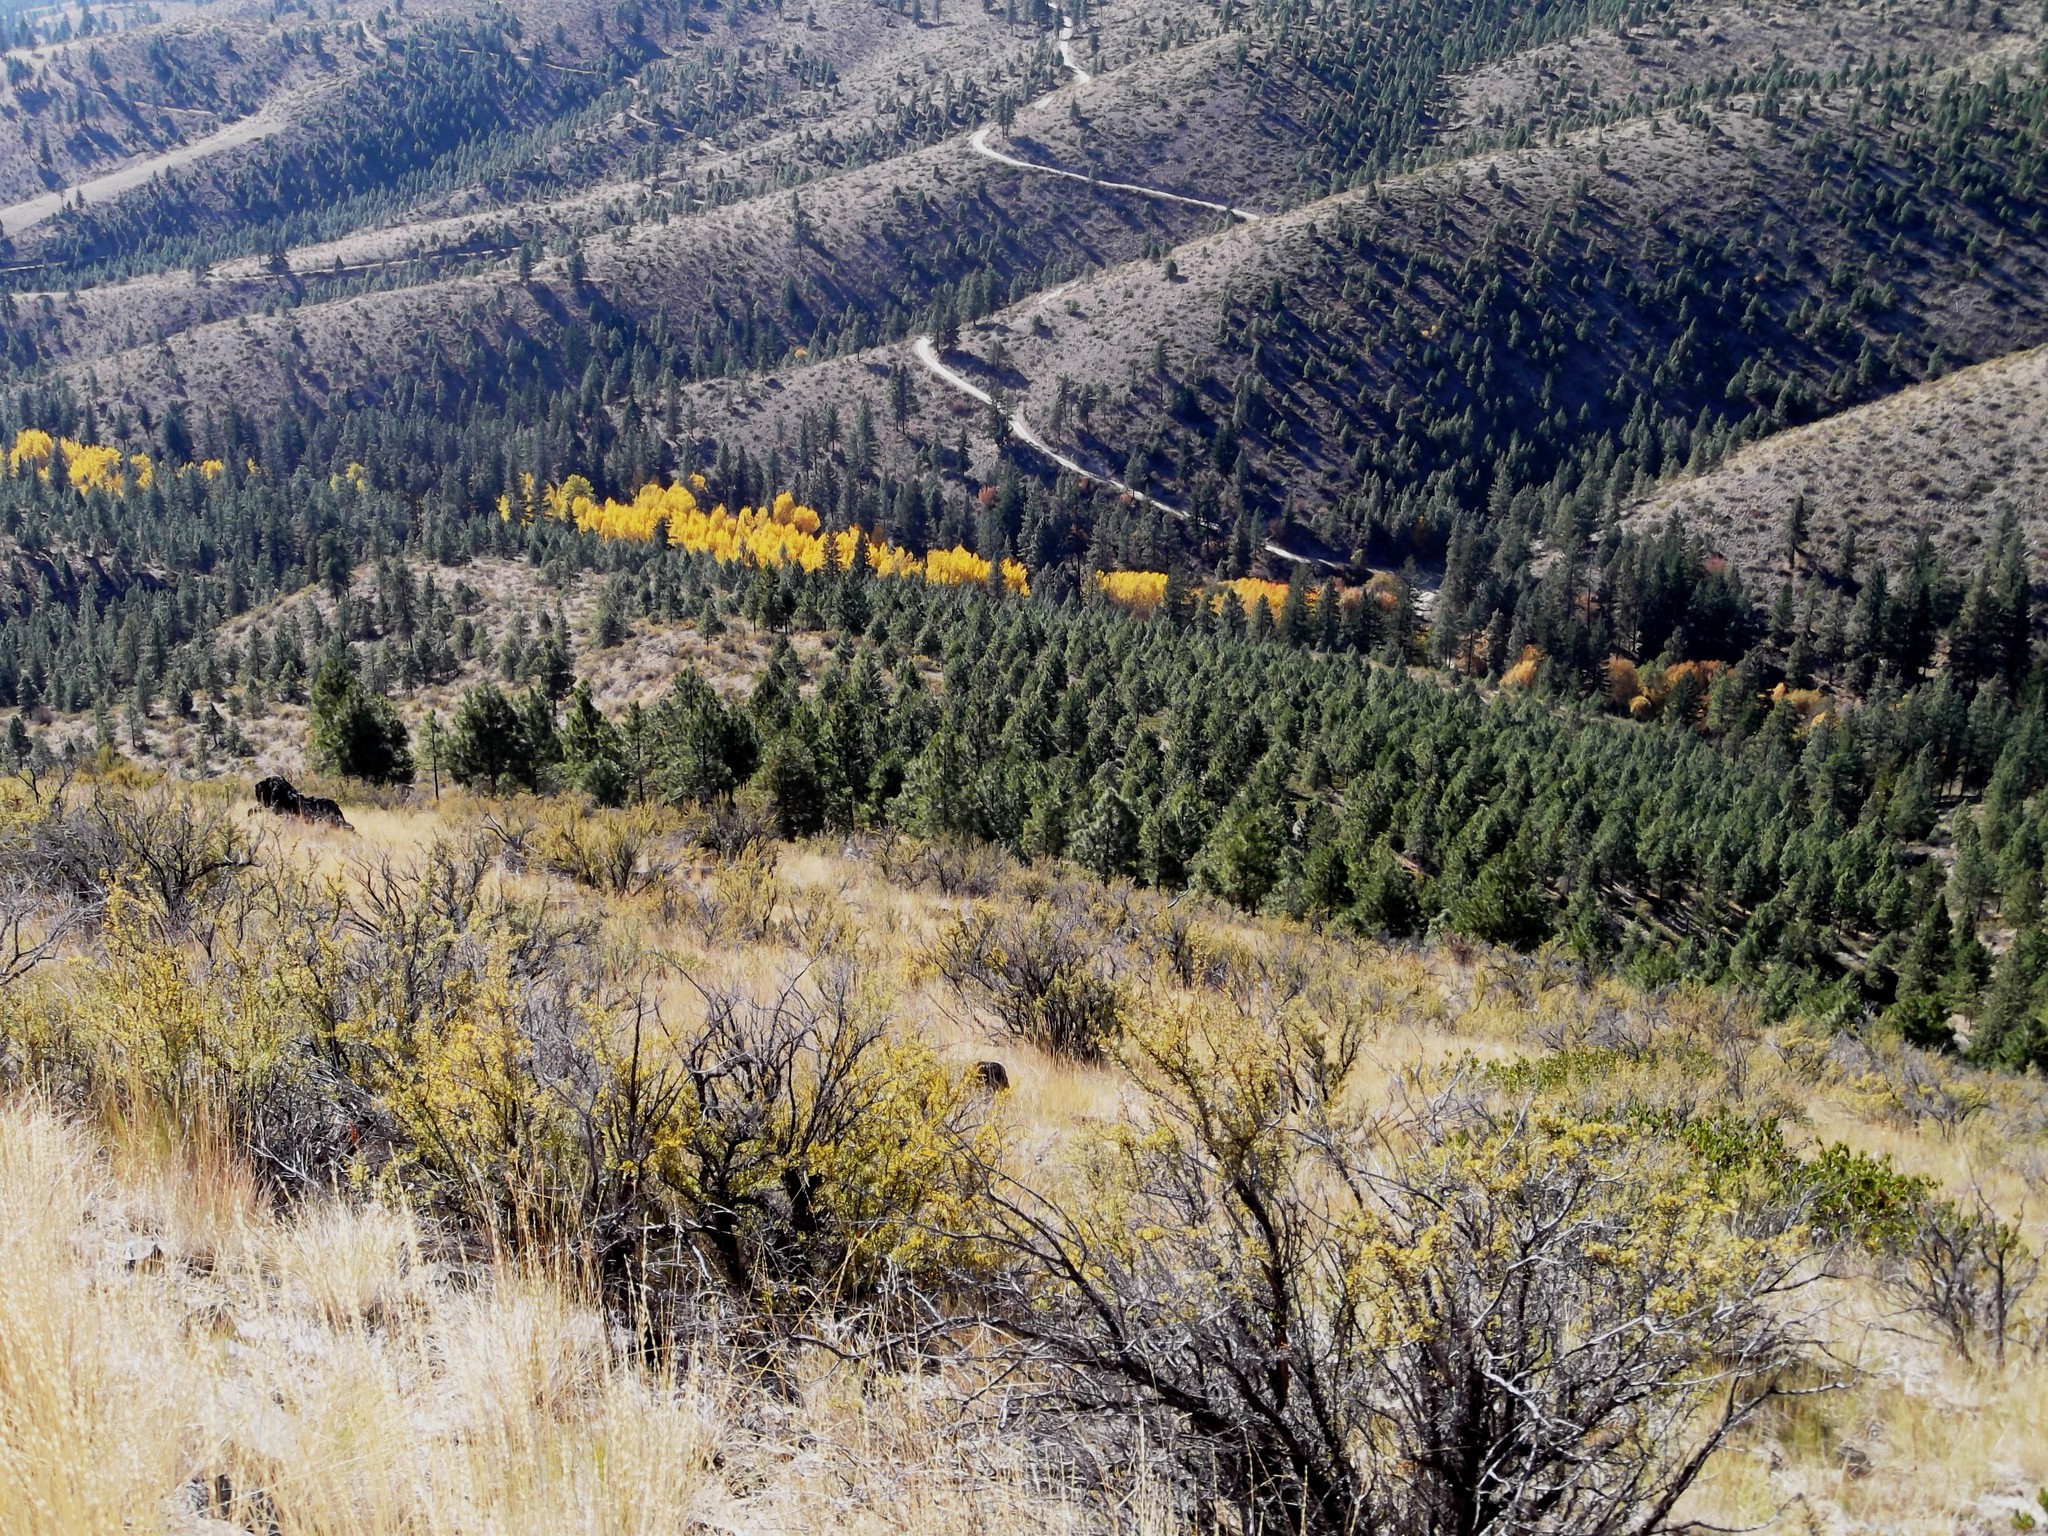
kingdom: Plantae
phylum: Tracheophyta
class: Magnoliopsida
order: Malpighiales
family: Salicaceae
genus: Populus
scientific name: Populus tremuloides
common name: Quaking aspen
